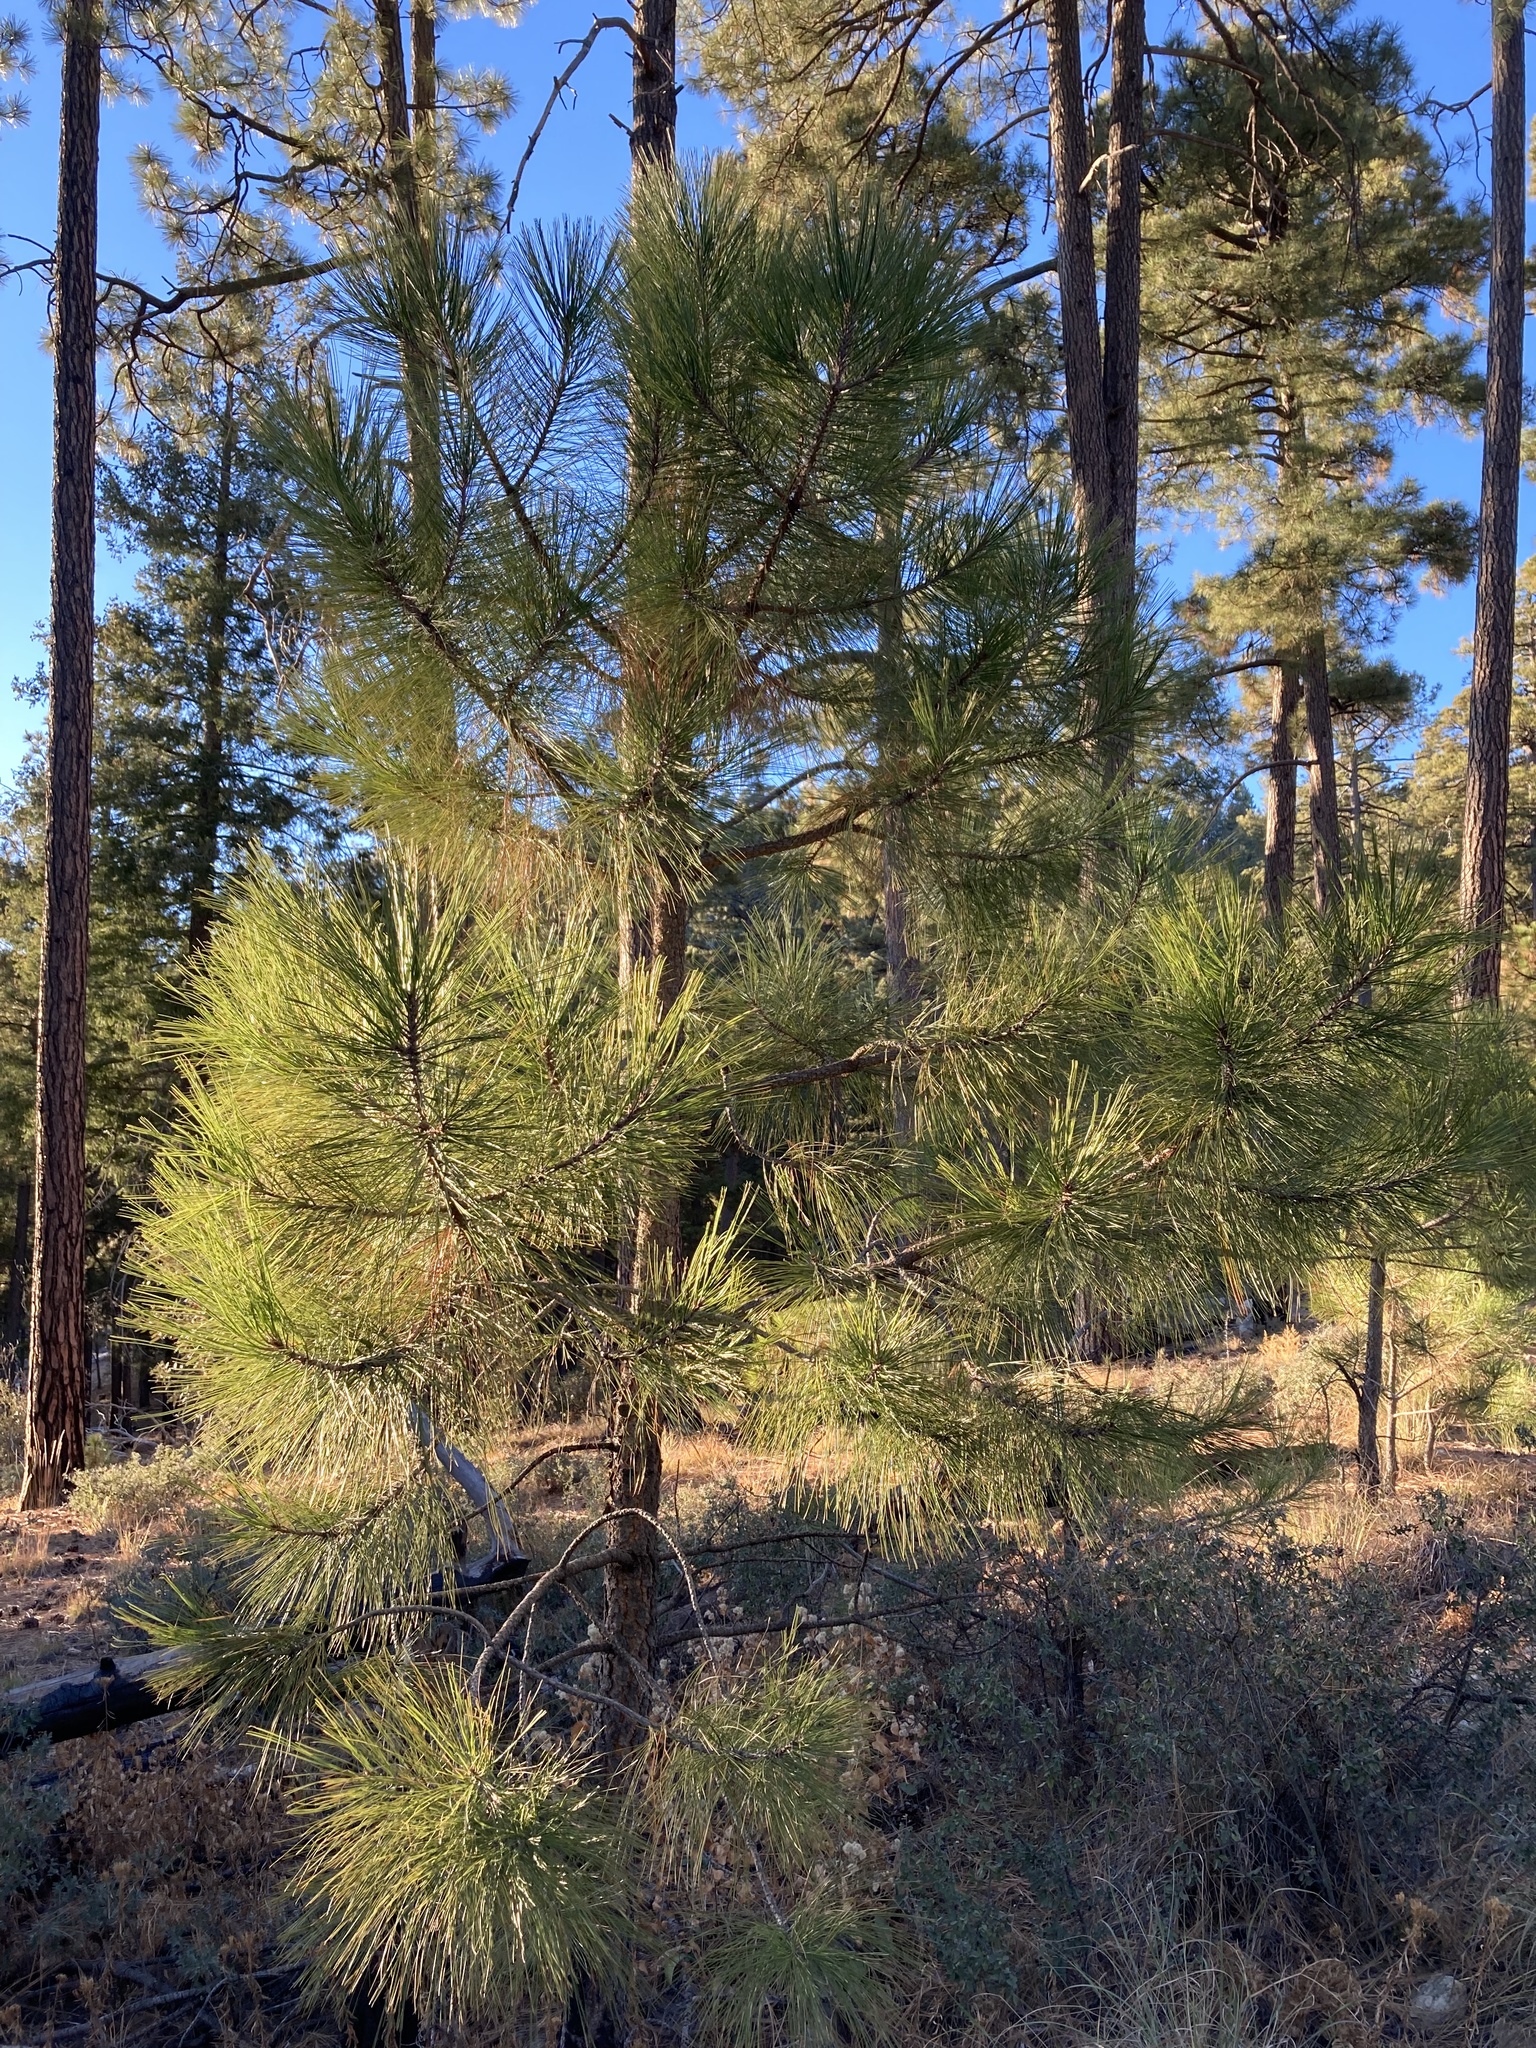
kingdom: Plantae
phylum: Tracheophyta
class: Pinopsida
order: Pinales
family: Pinaceae
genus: Pinus
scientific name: Pinus arizonica
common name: Arizona pine
